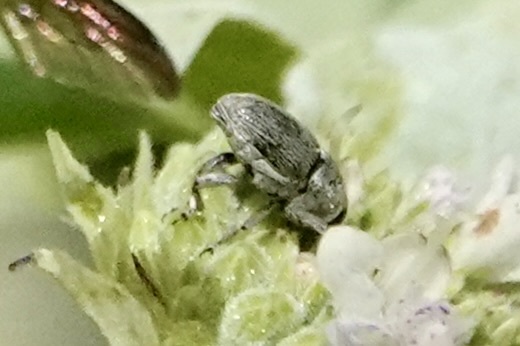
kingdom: Animalia
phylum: Arthropoda
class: Insecta
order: Coleoptera
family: Curculionidae
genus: Odontocorynus
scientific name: Odontocorynus umbellae
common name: Daisy flower weevil
